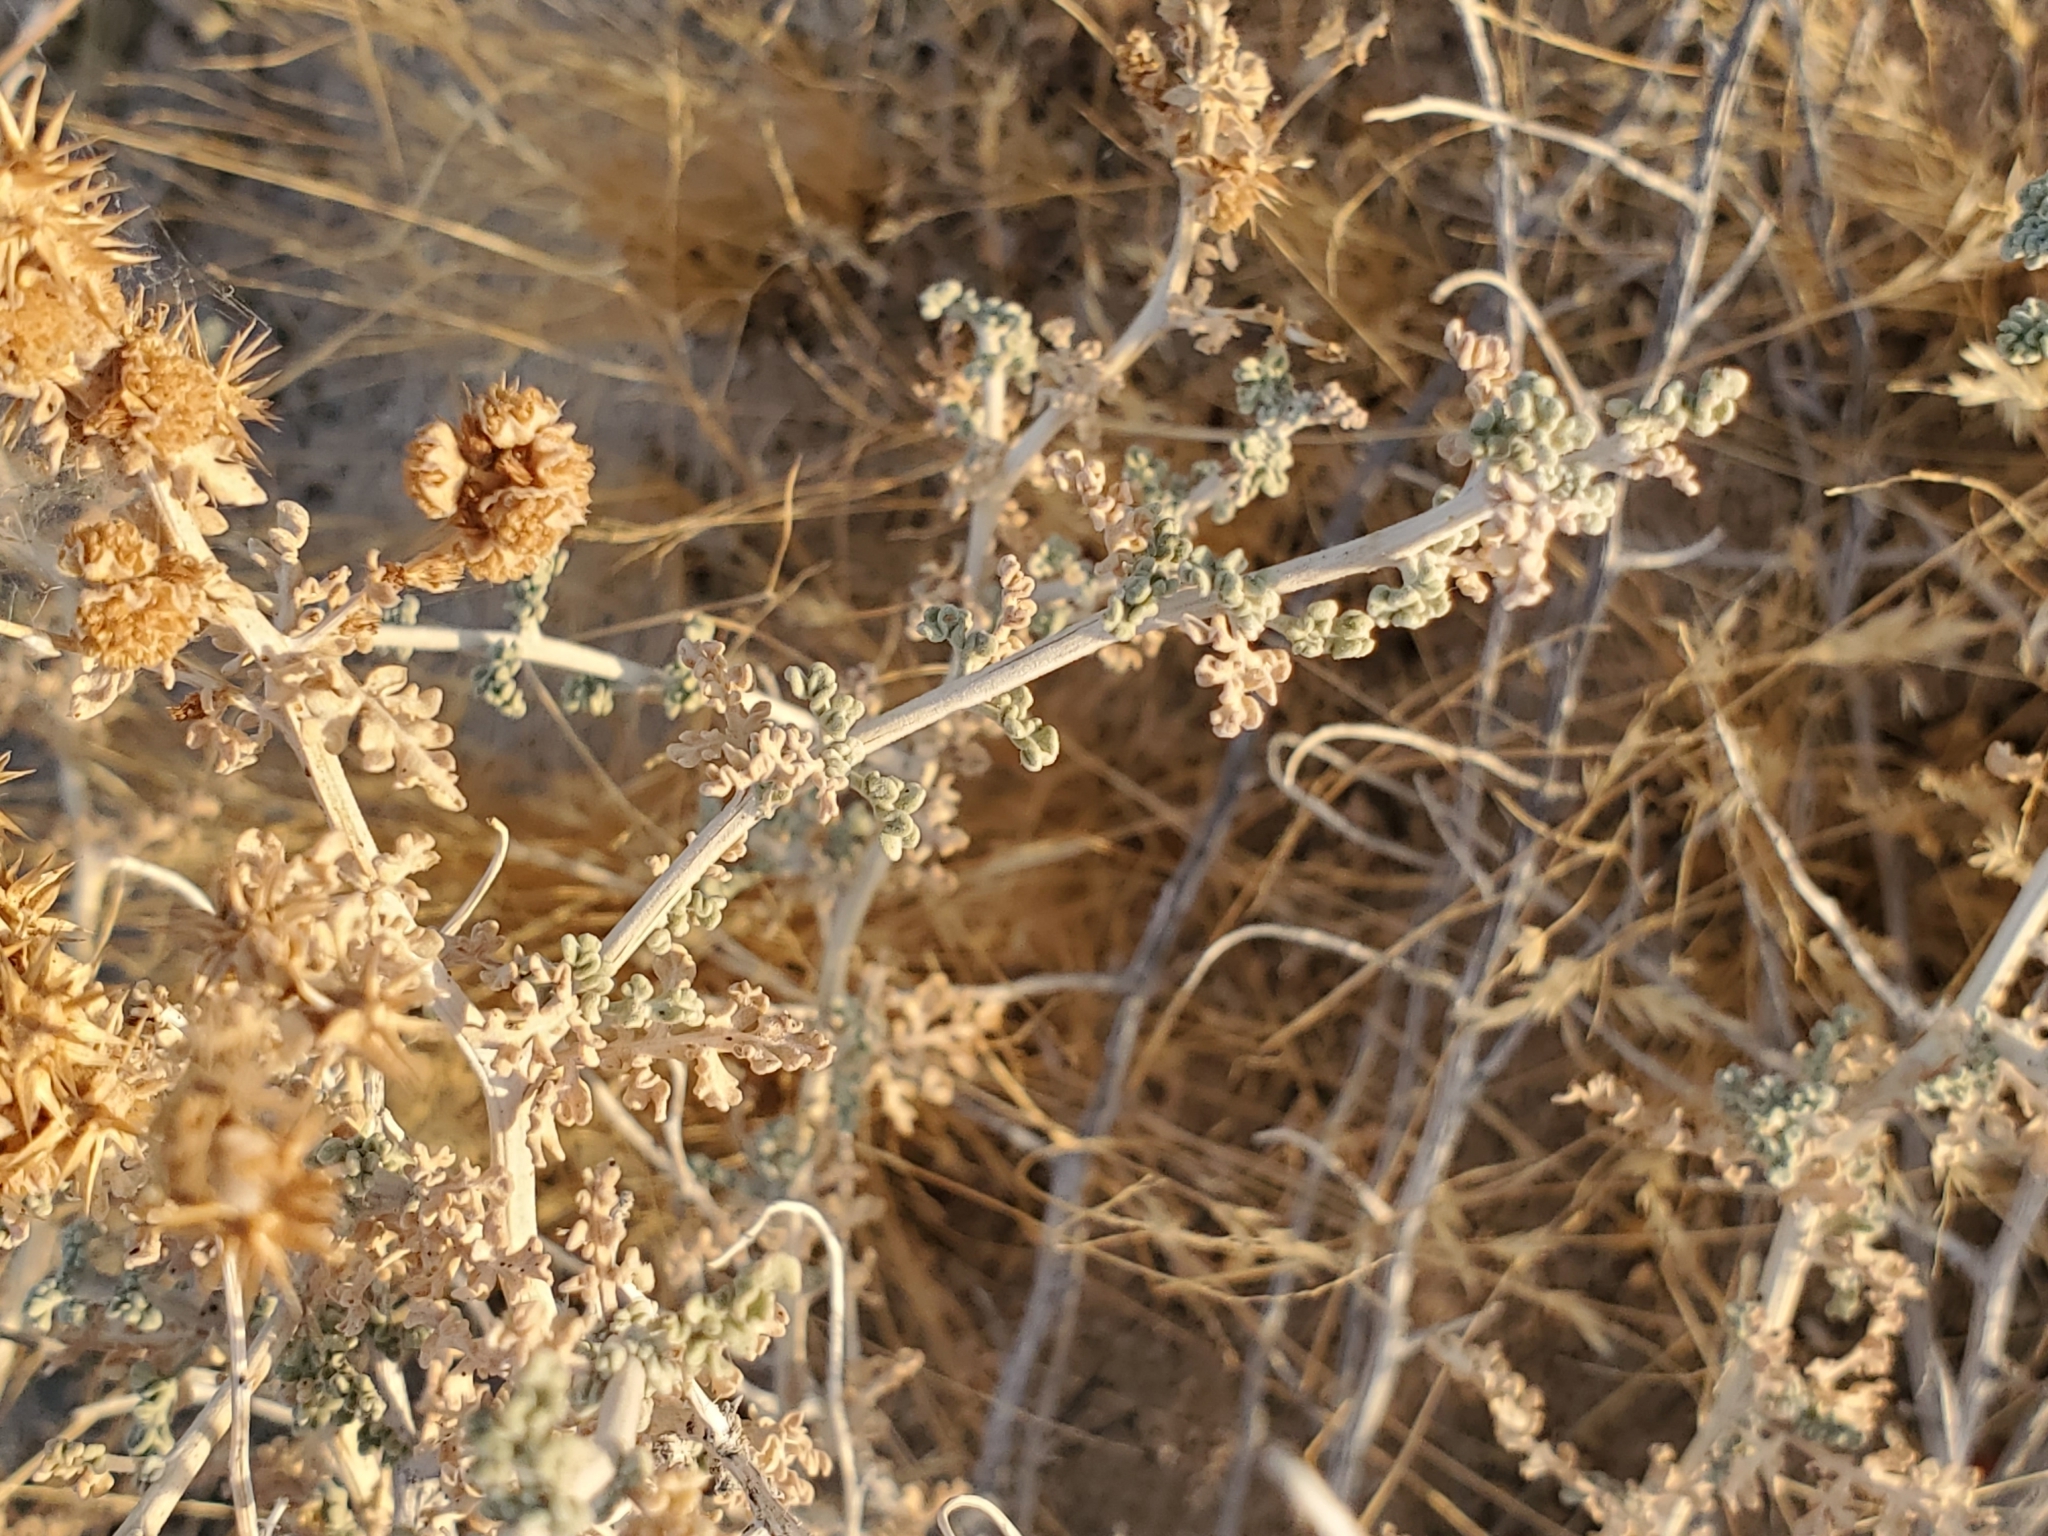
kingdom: Plantae
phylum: Tracheophyta
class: Magnoliopsida
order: Asterales
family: Asteraceae
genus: Ambrosia
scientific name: Ambrosia dumosa
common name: Bur-sage
